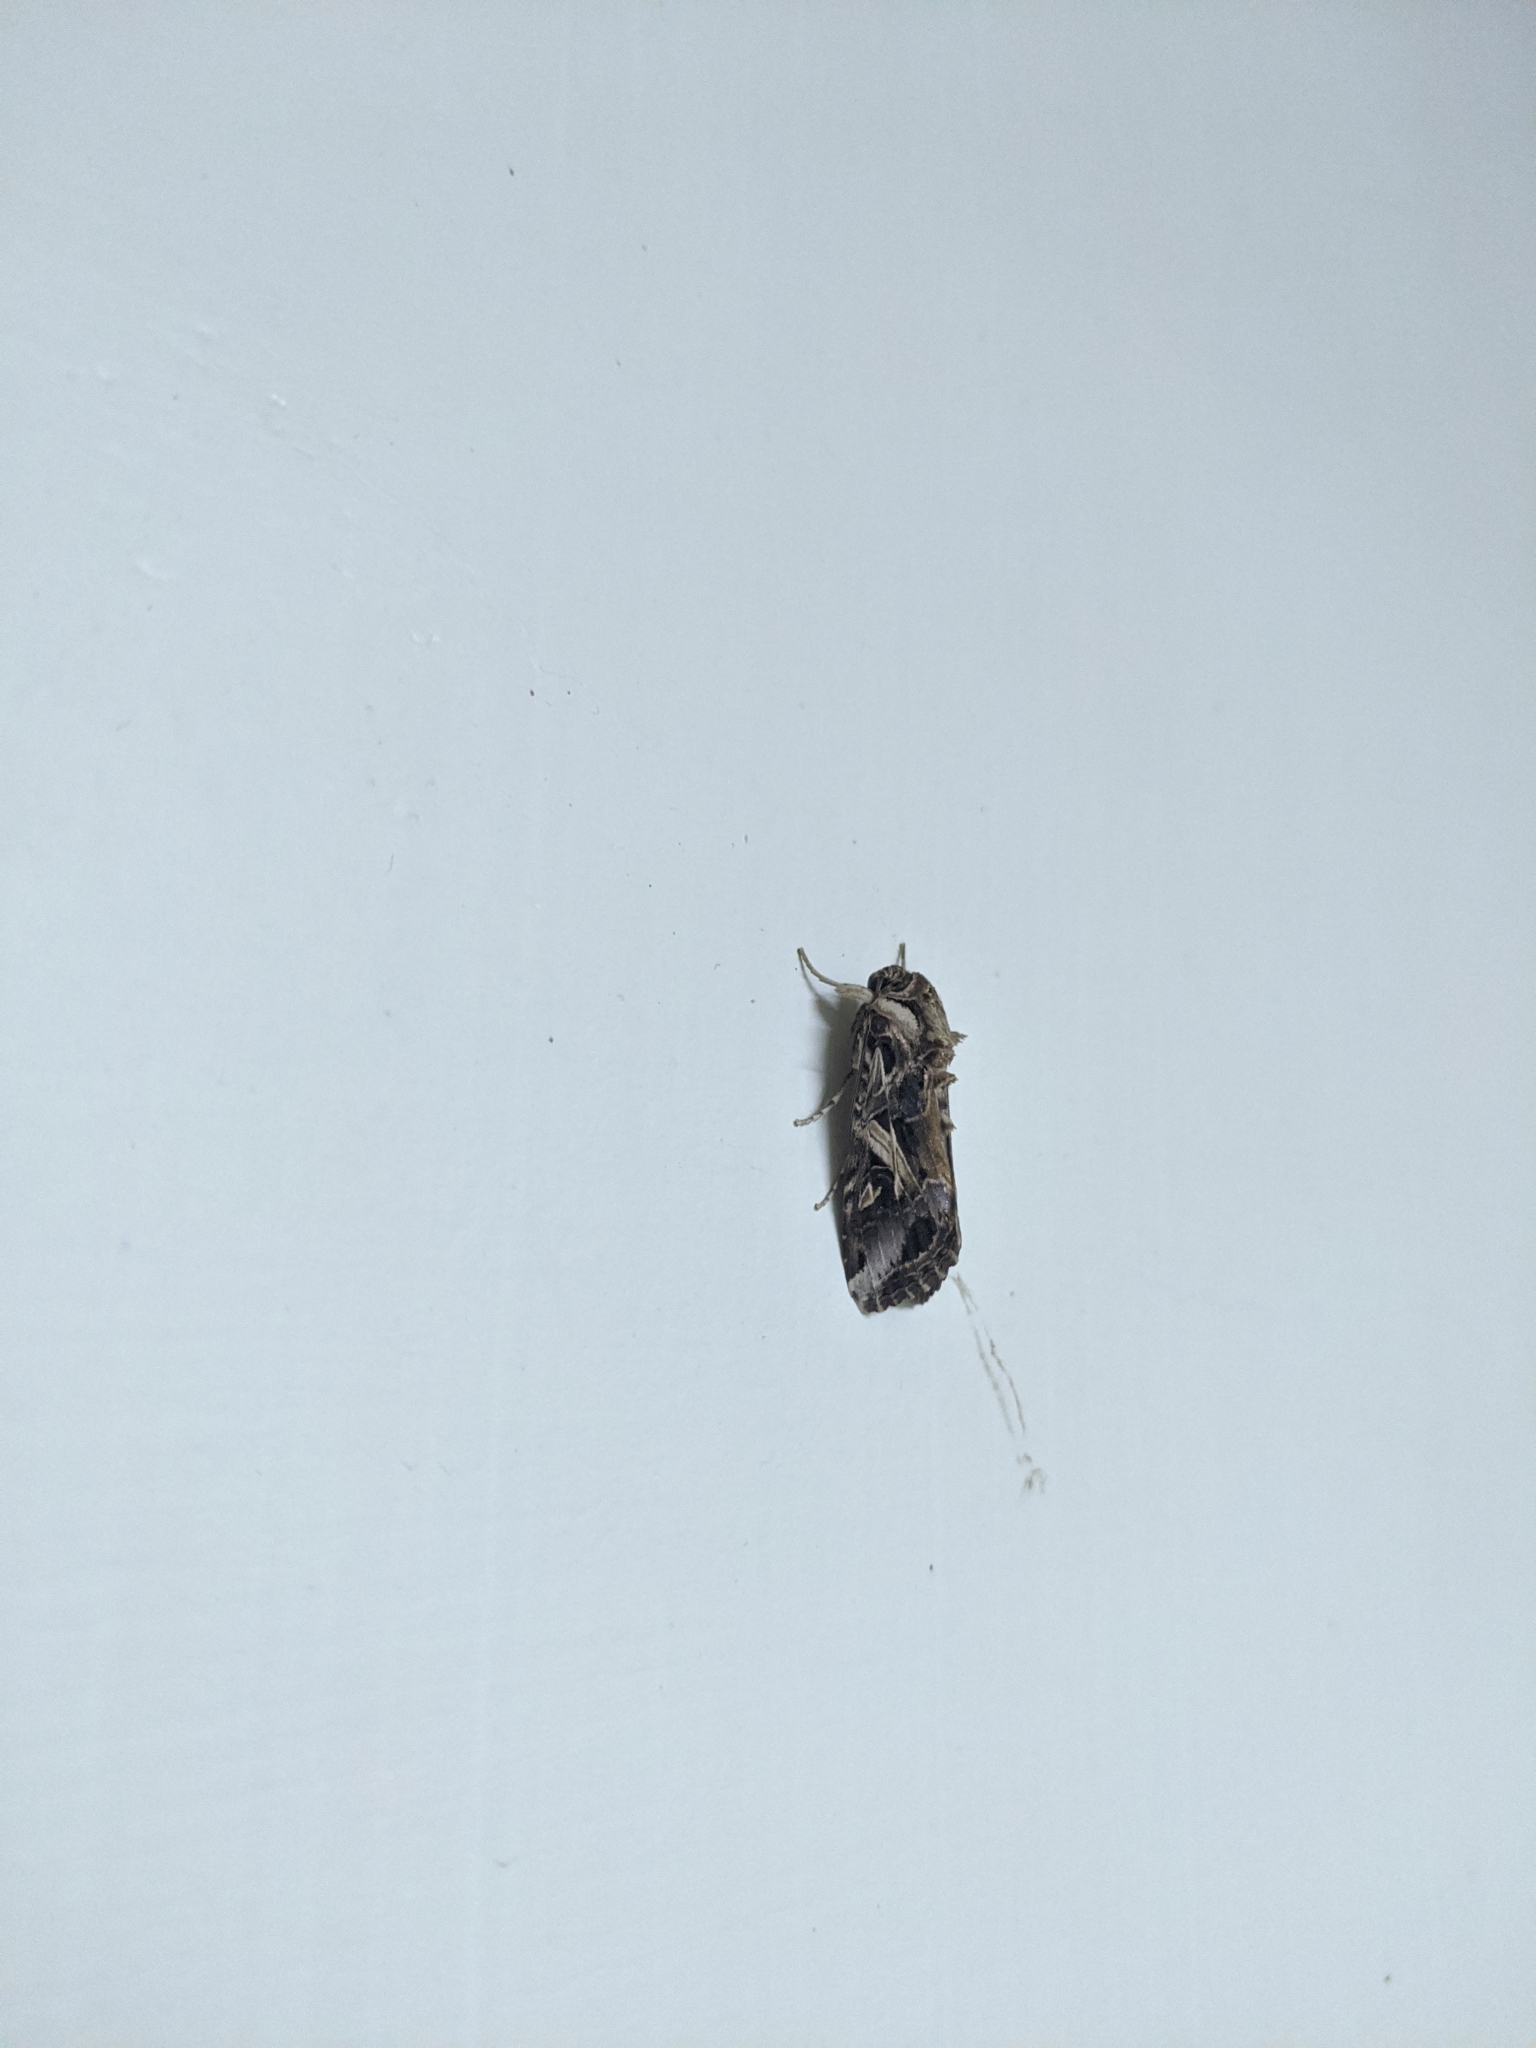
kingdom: Animalia
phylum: Arthropoda
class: Insecta
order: Lepidoptera
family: Noctuidae
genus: Spodoptera
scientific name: Spodoptera litura
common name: Asian cotton leafworm
